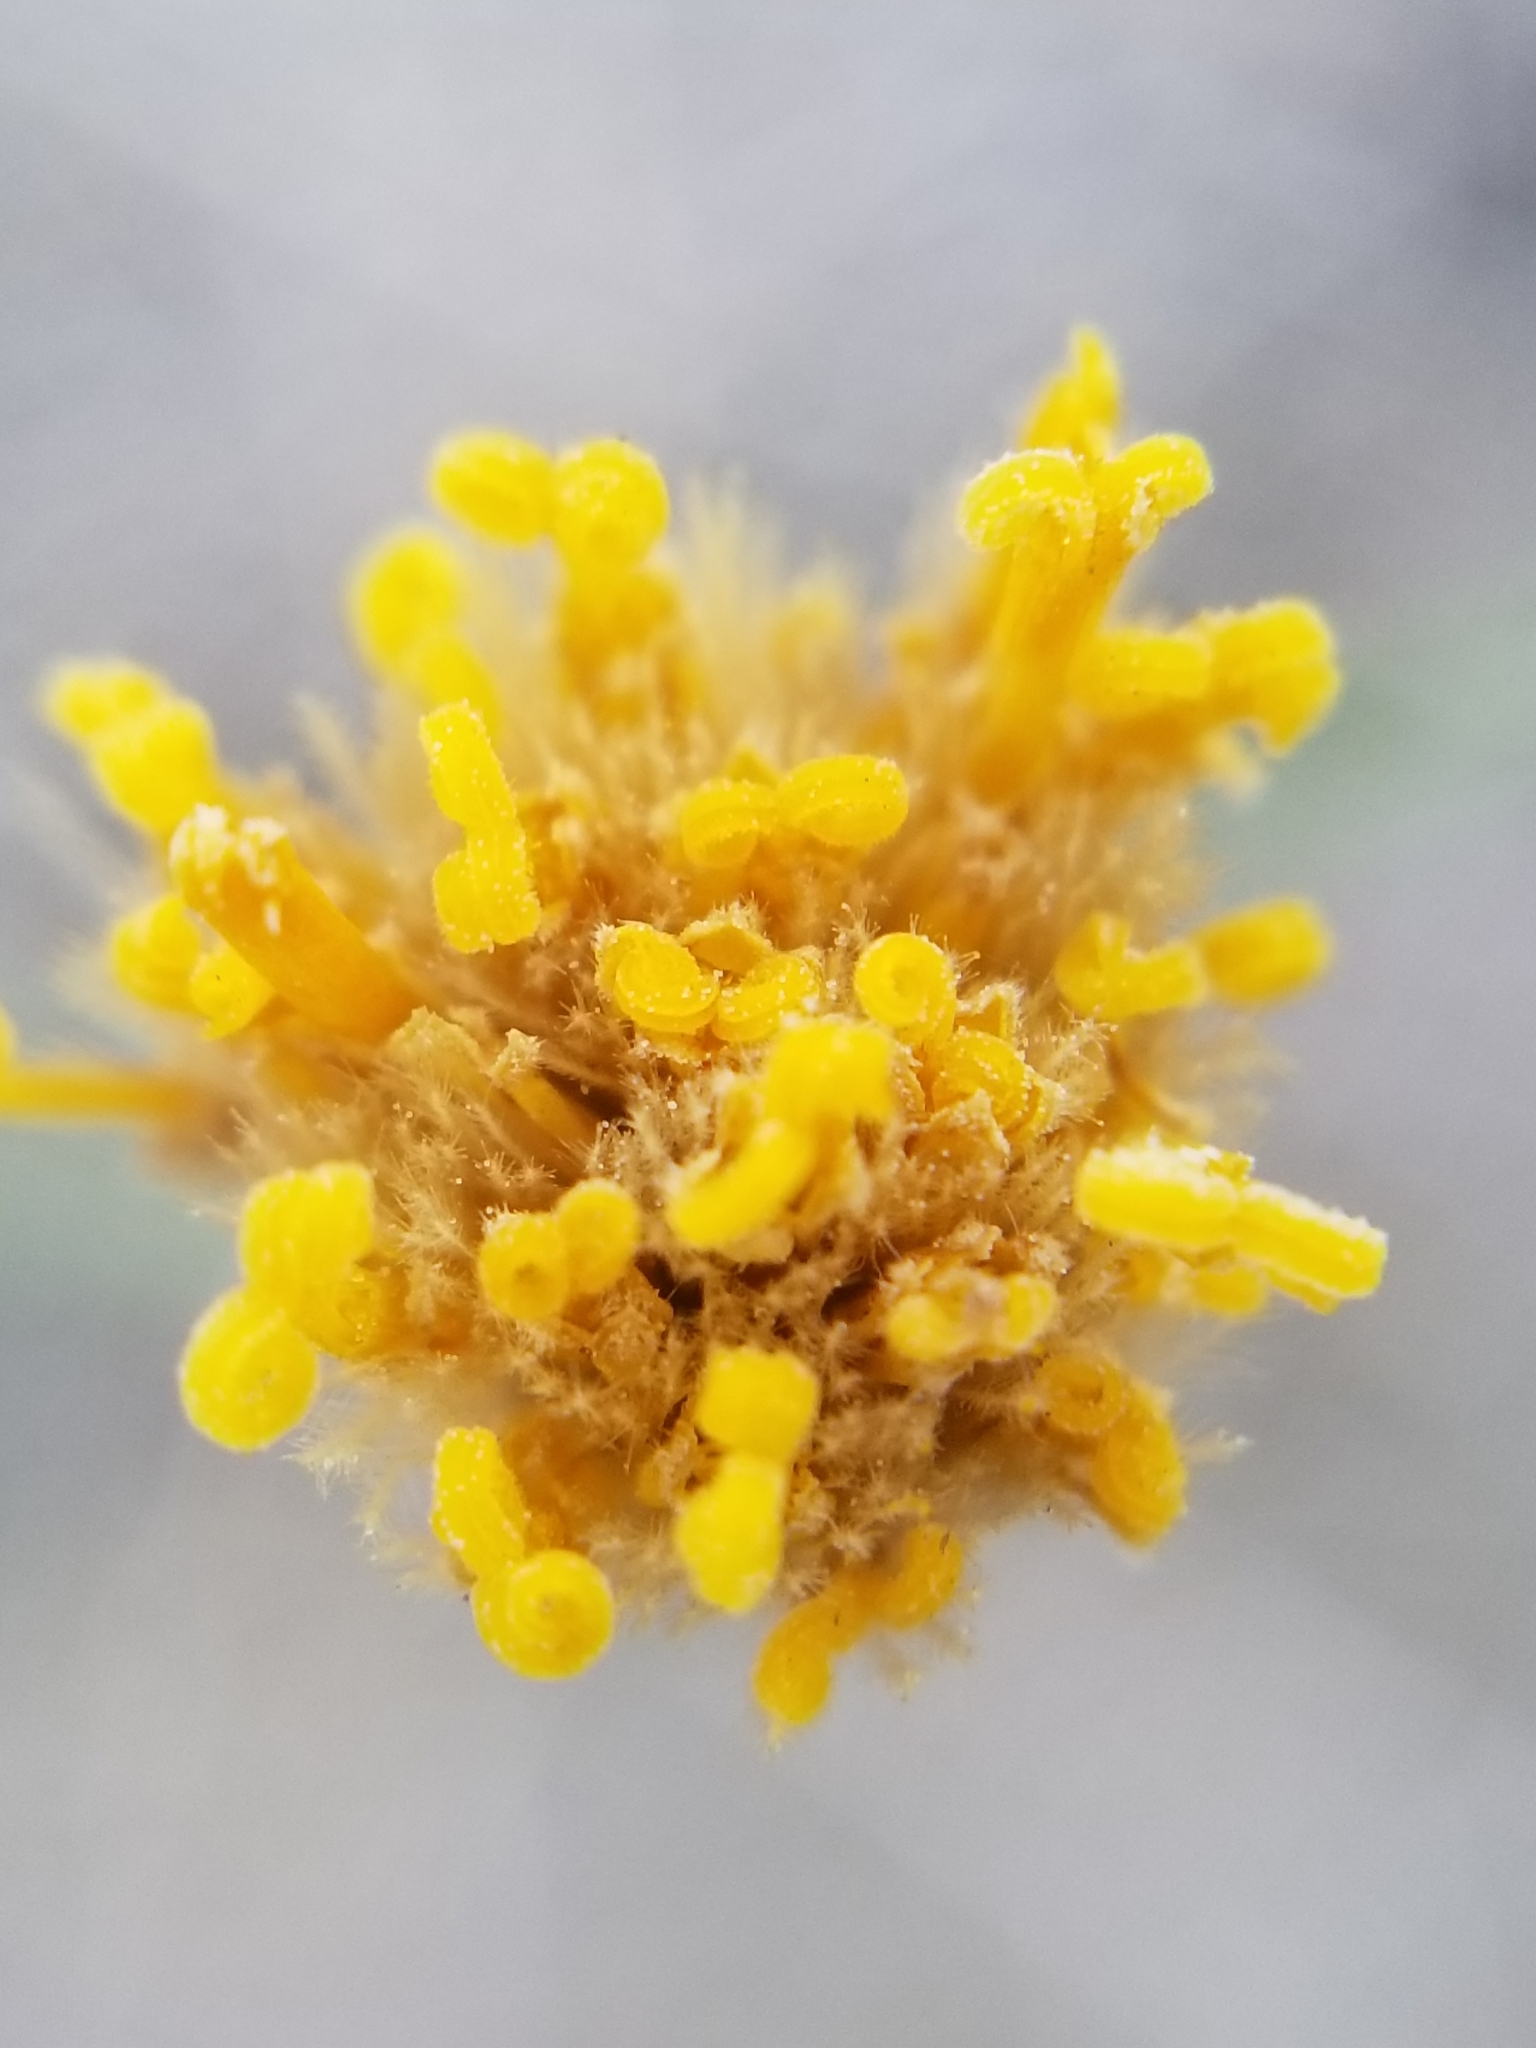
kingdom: Plantae
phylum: Tracheophyta
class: Magnoliopsida
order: Asterales
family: Asteraceae
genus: Bebbia
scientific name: Bebbia juncea
